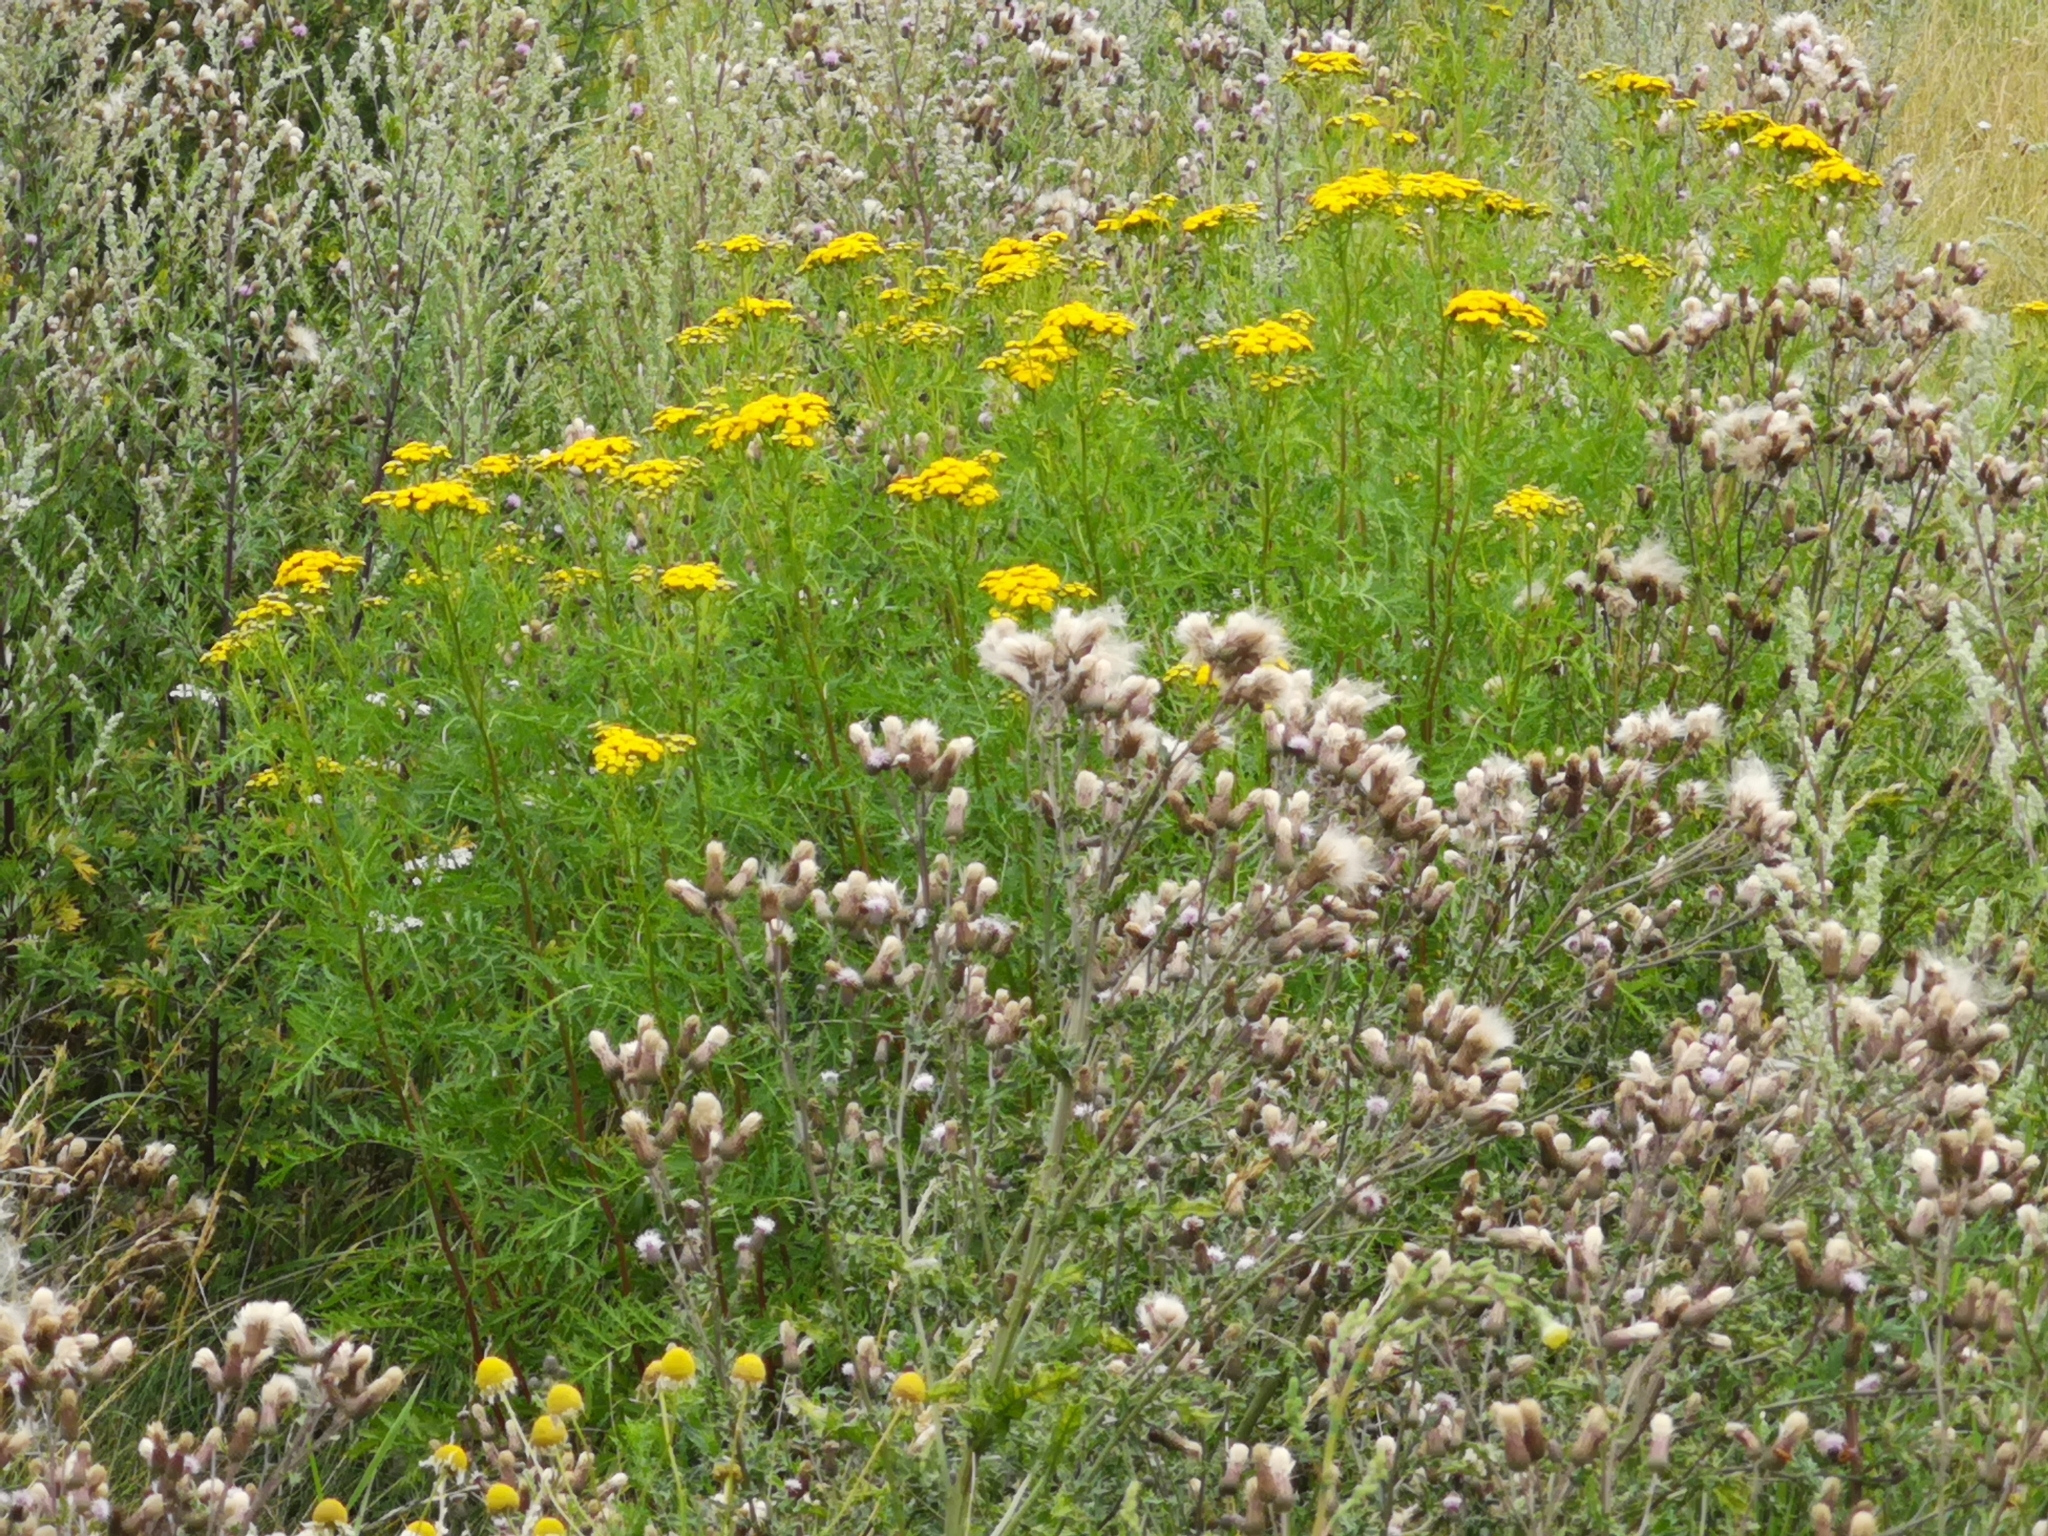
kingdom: Plantae
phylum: Tracheophyta
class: Magnoliopsida
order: Asterales
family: Asteraceae
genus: Tanacetum
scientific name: Tanacetum vulgare
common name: Common tansy
